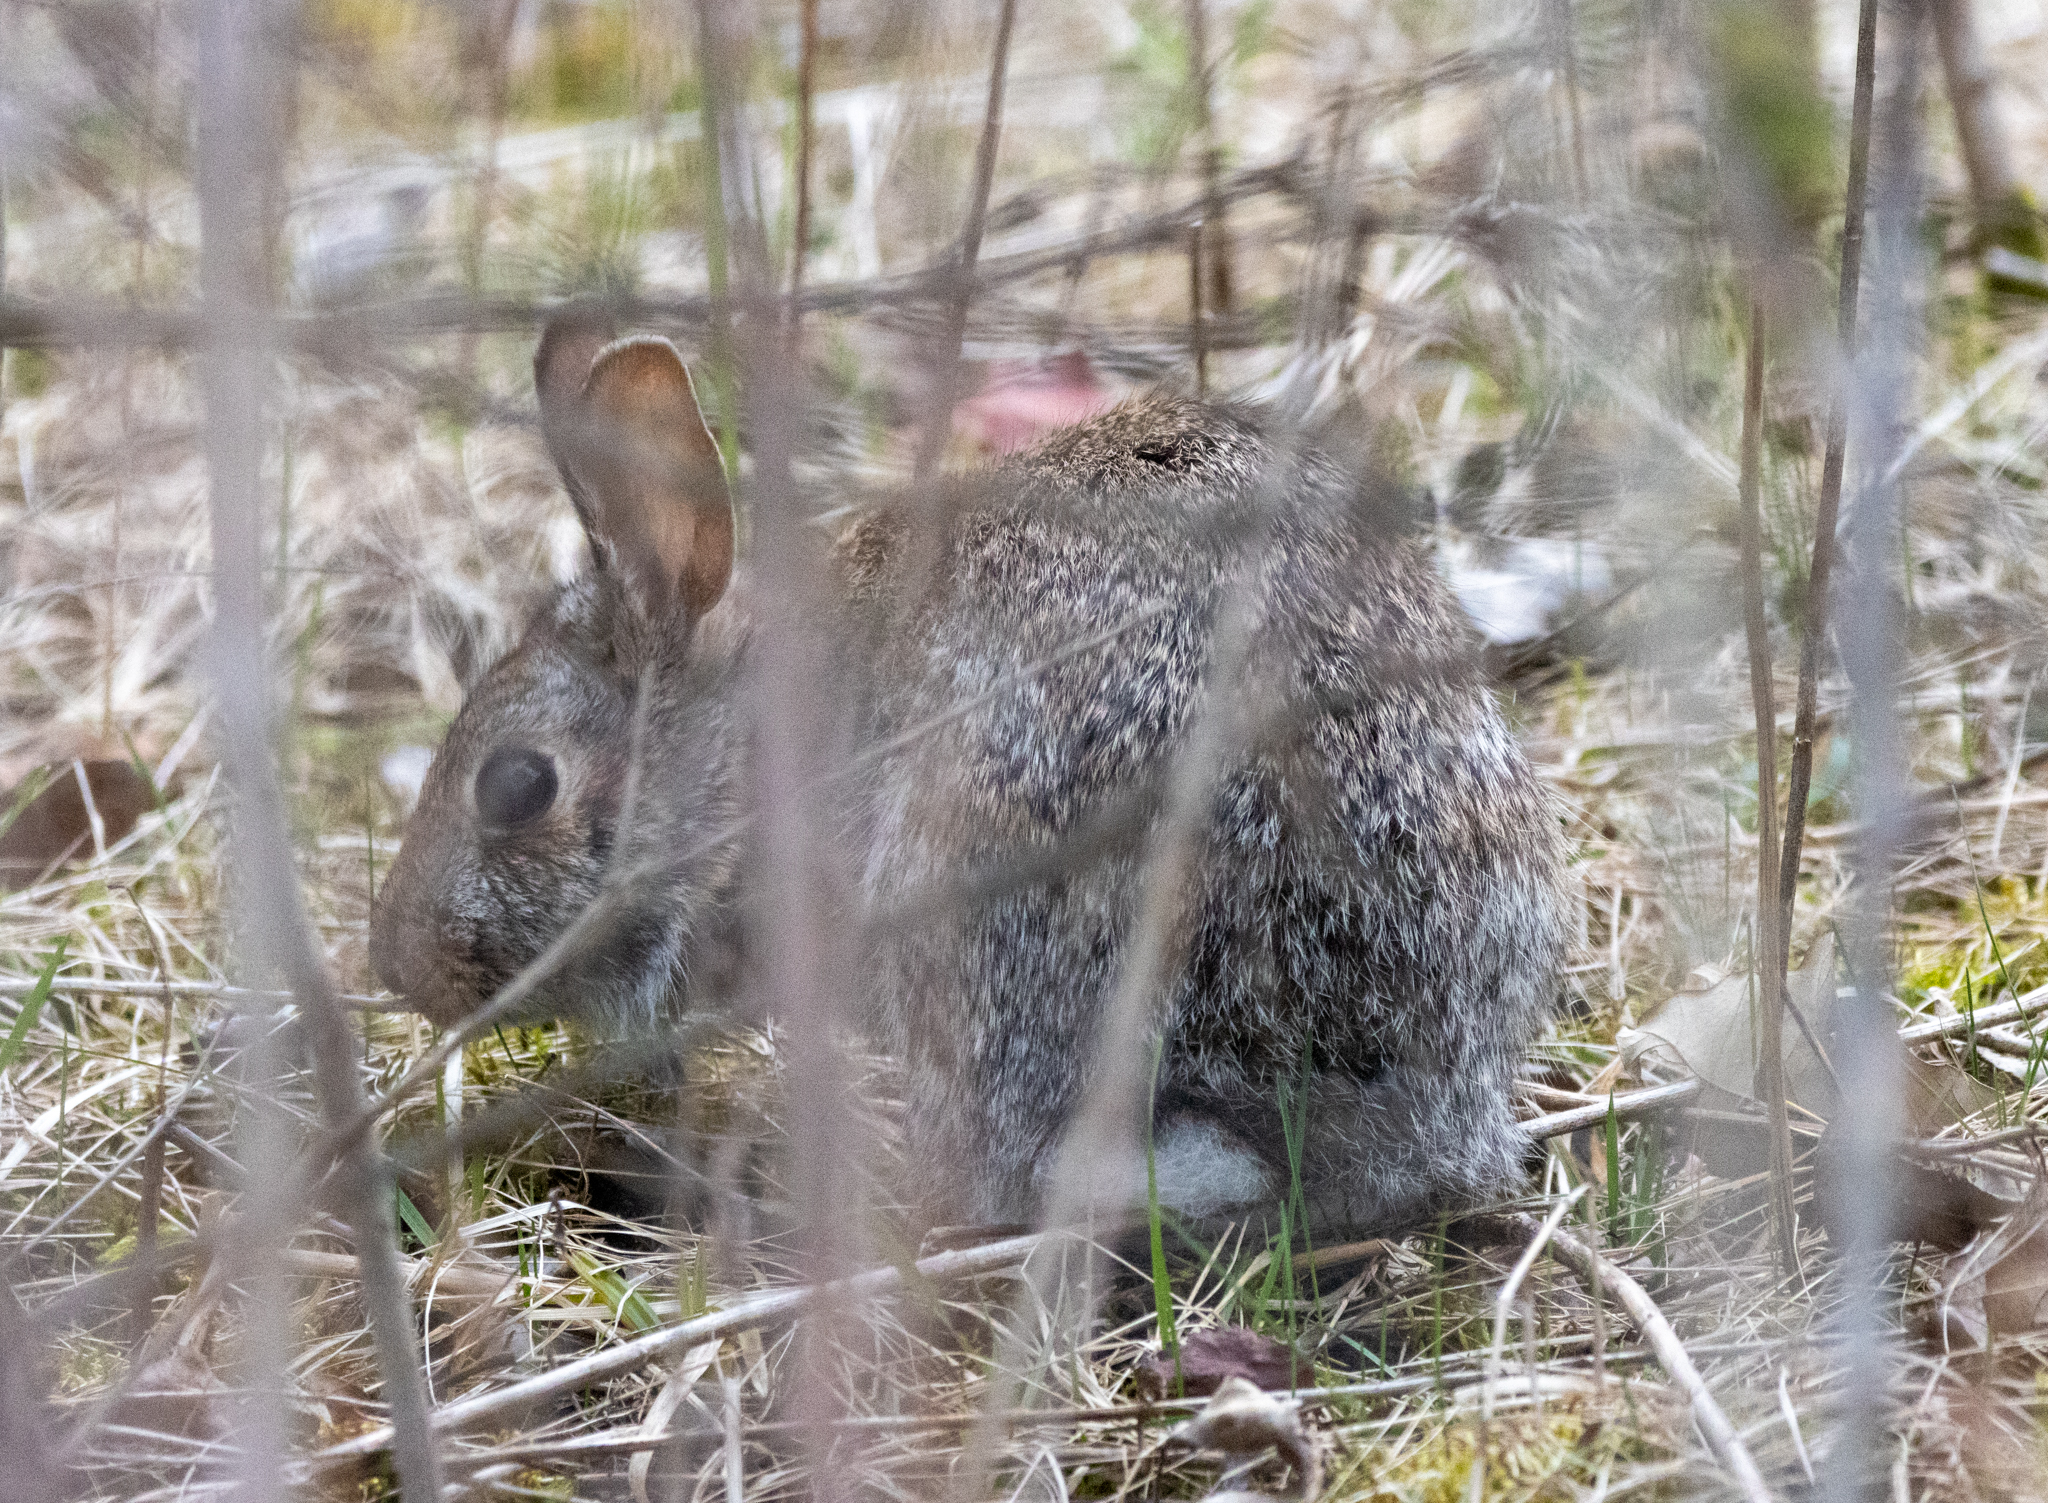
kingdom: Animalia
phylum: Chordata
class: Mammalia
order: Lagomorpha
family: Leporidae
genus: Sylvilagus
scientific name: Sylvilagus floridanus
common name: Eastern cottontail
